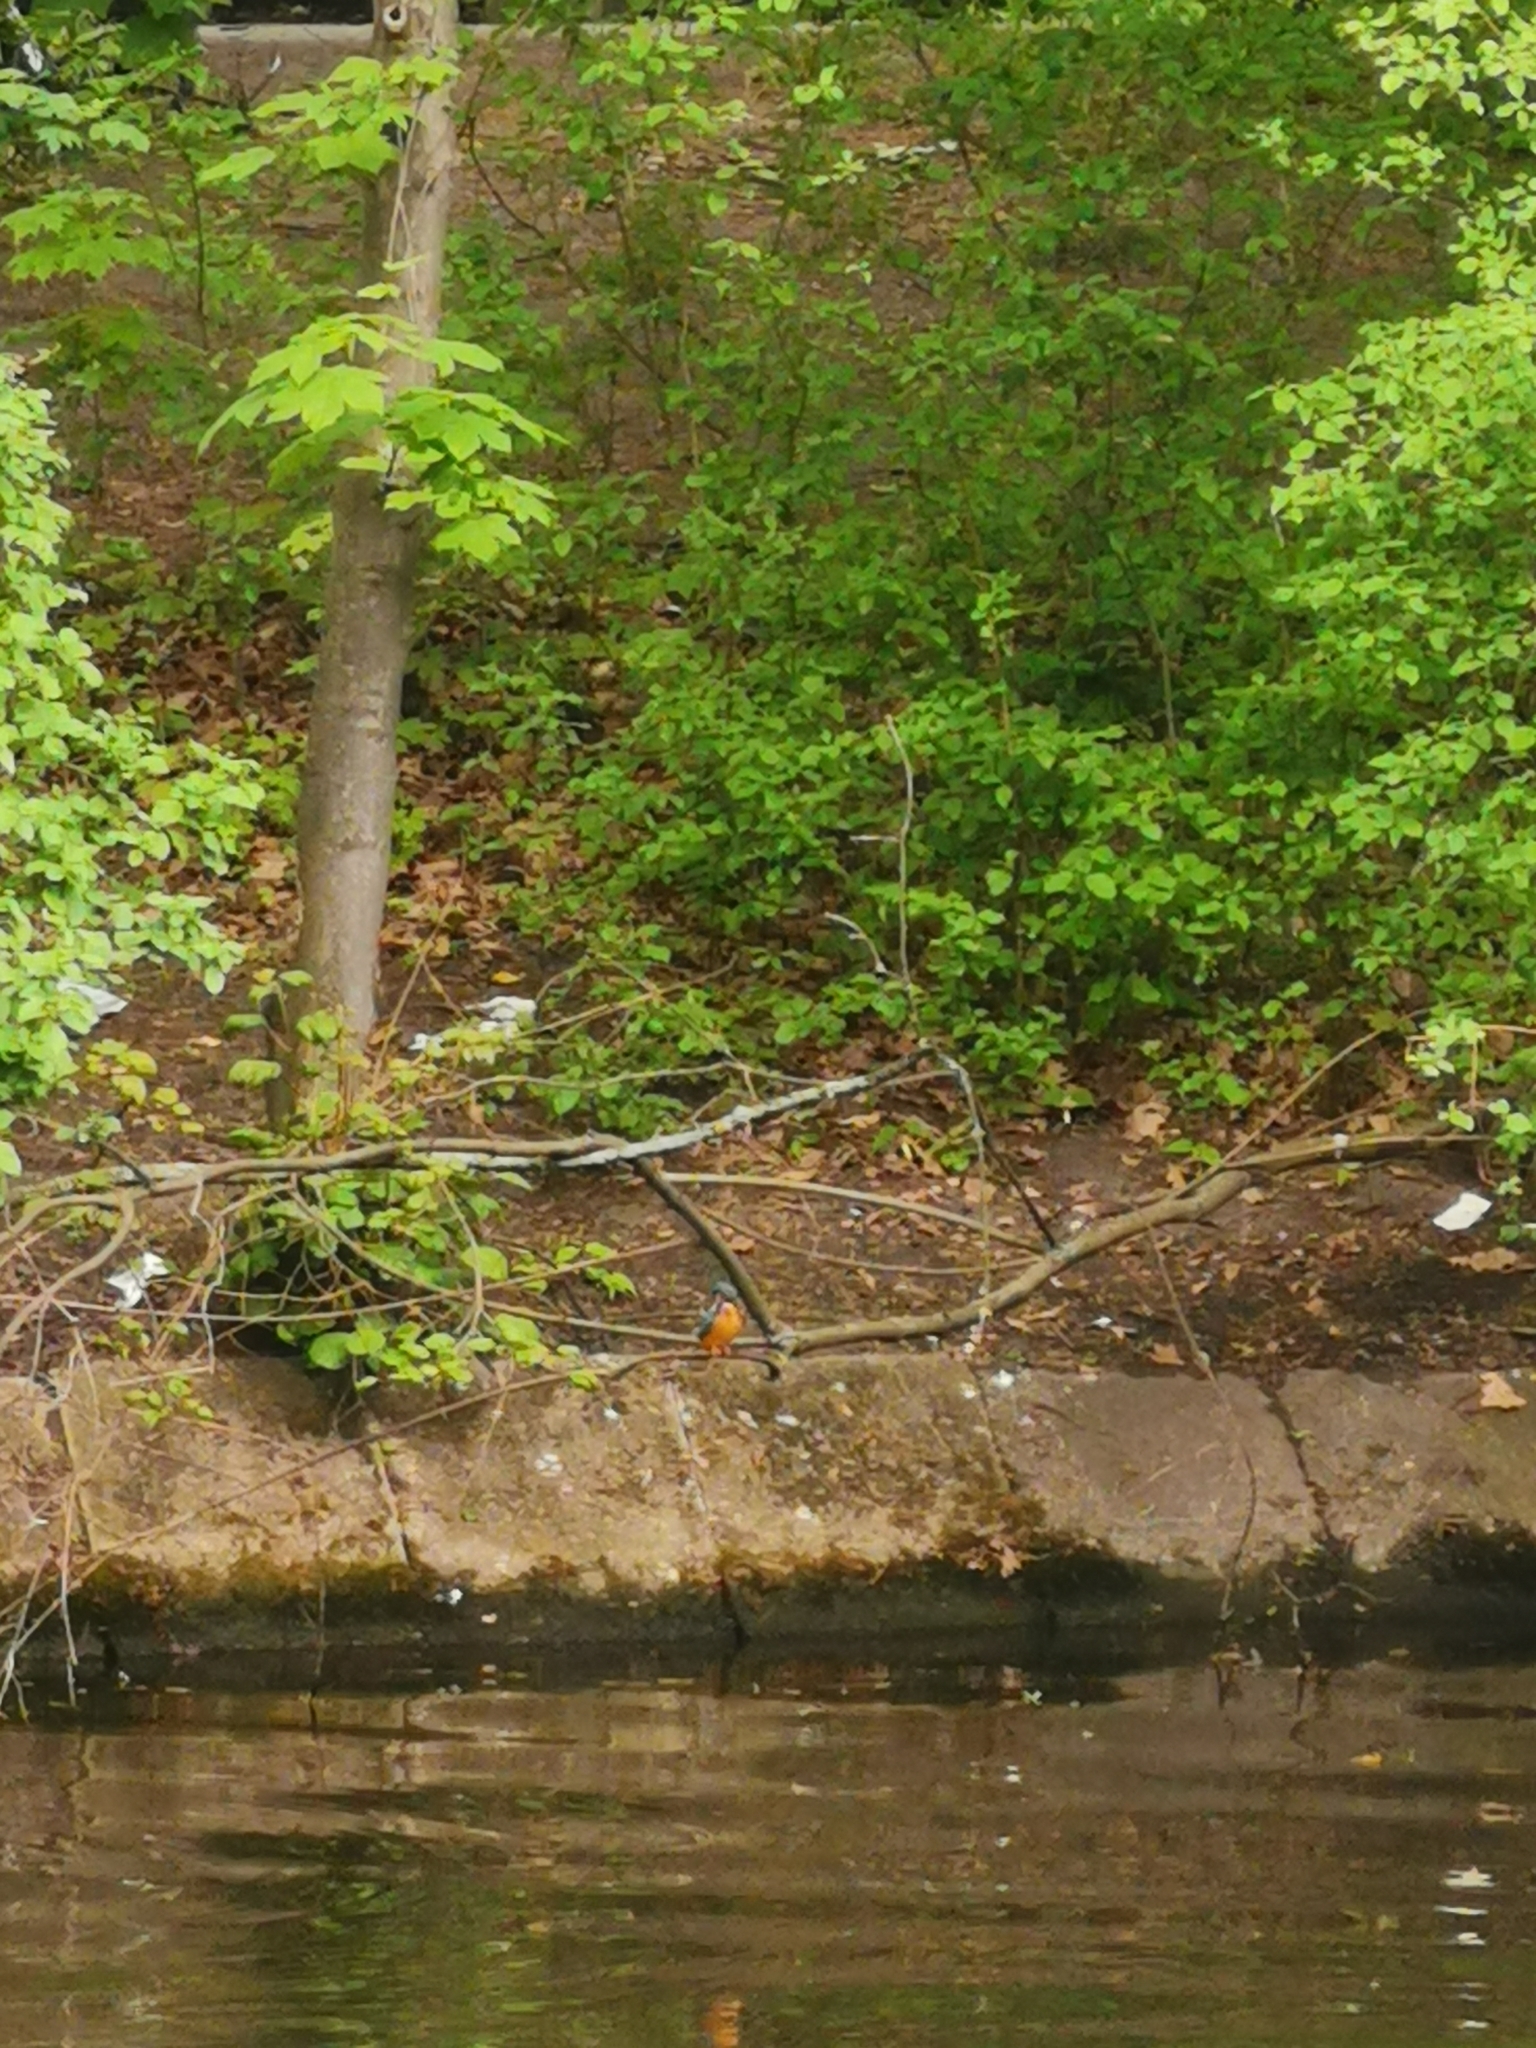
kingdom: Animalia
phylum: Chordata
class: Aves
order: Coraciiformes
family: Alcedinidae
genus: Alcedo
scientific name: Alcedo atthis
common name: Common kingfisher
